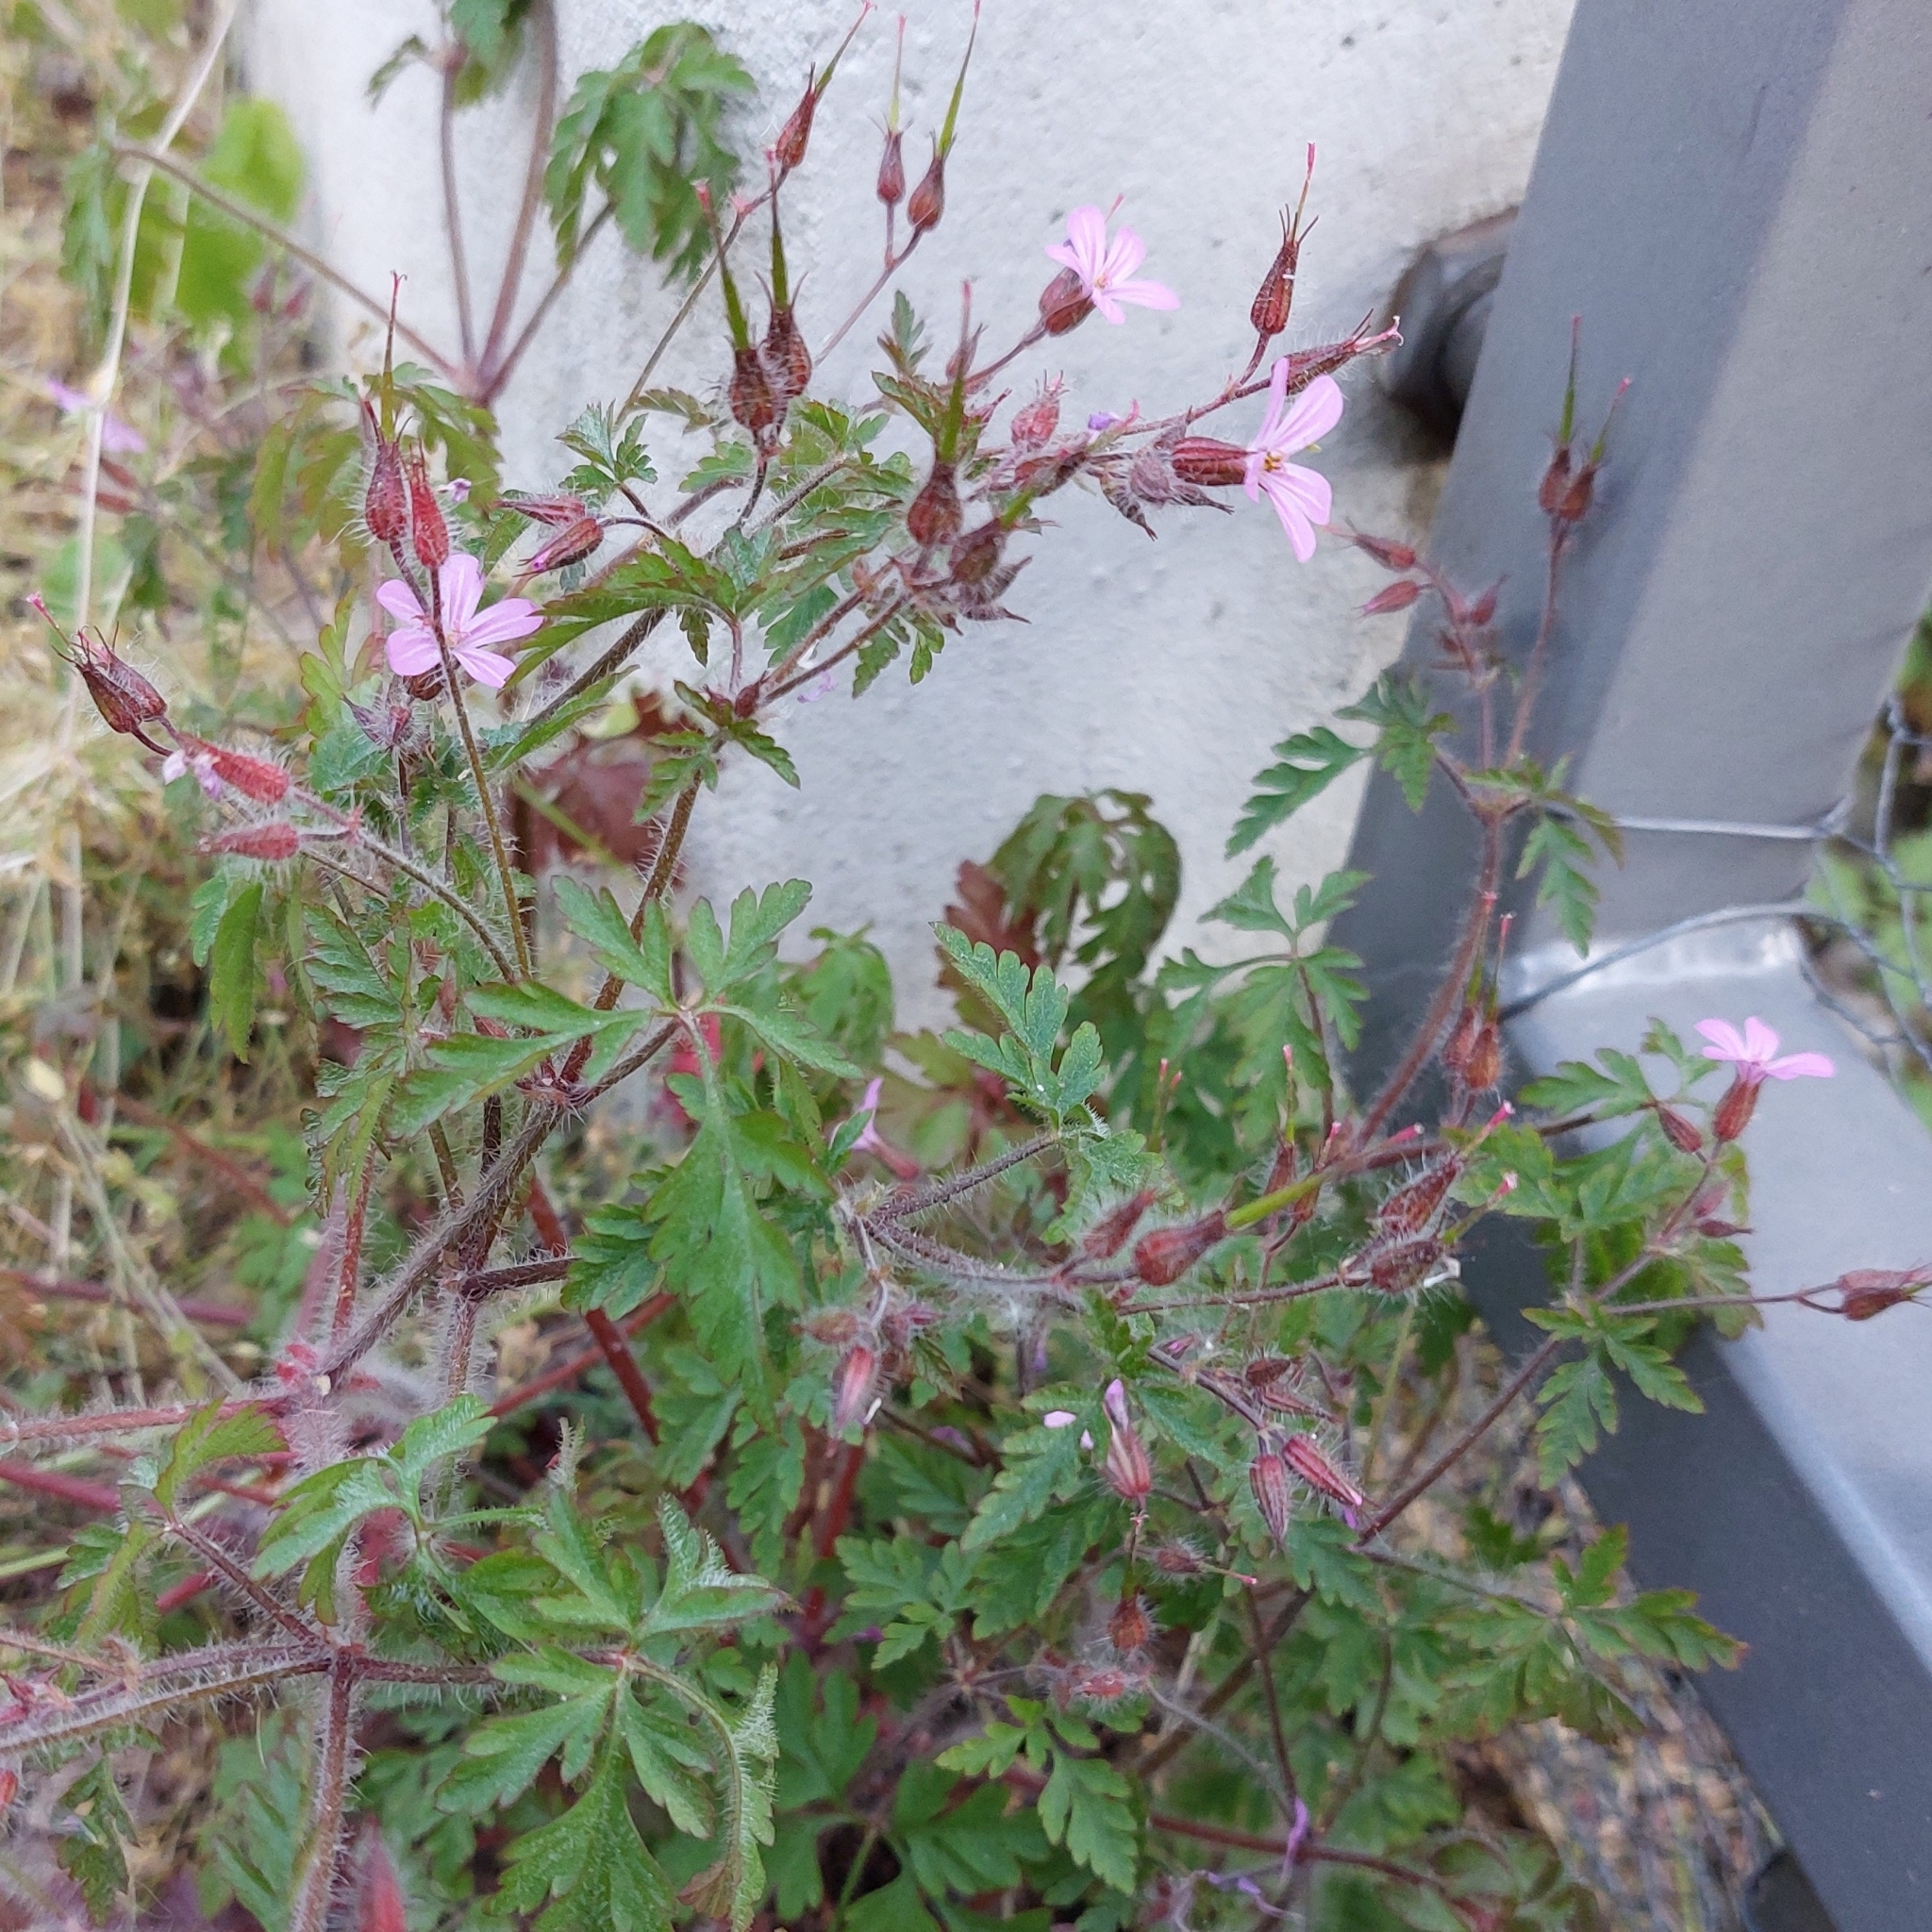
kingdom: Plantae
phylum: Tracheophyta
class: Magnoliopsida
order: Geraniales
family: Geraniaceae
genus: Geranium
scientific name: Geranium robertianum
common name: Herb-robert
